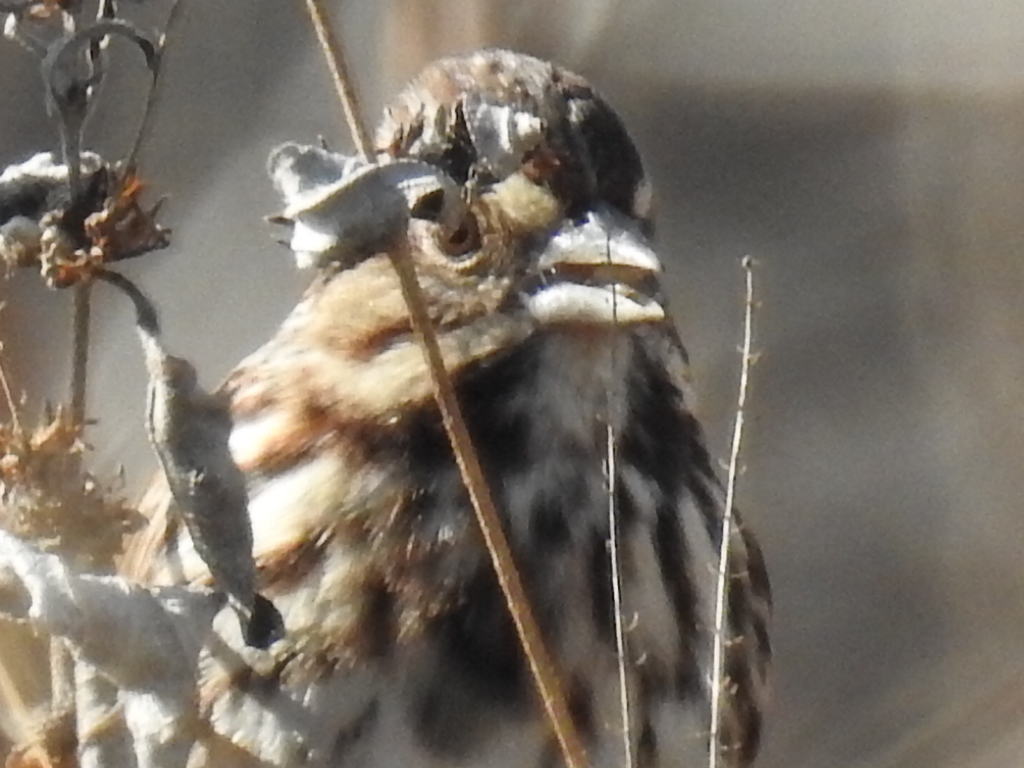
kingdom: Animalia
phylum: Chordata
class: Aves
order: Passeriformes
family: Passerellidae
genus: Melospiza
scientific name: Melospiza melodia
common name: Song sparrow
